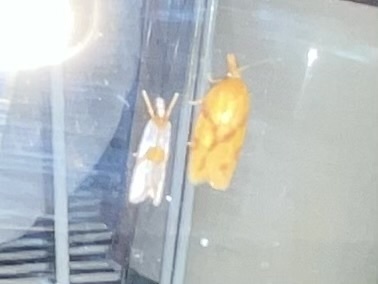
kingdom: Animalia
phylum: Arthropoda
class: Insecta
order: Lepidoptera
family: Tortricidae
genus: Sparganothis
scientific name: Sparganothis unifasciana
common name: One-lined sparganothis moth
